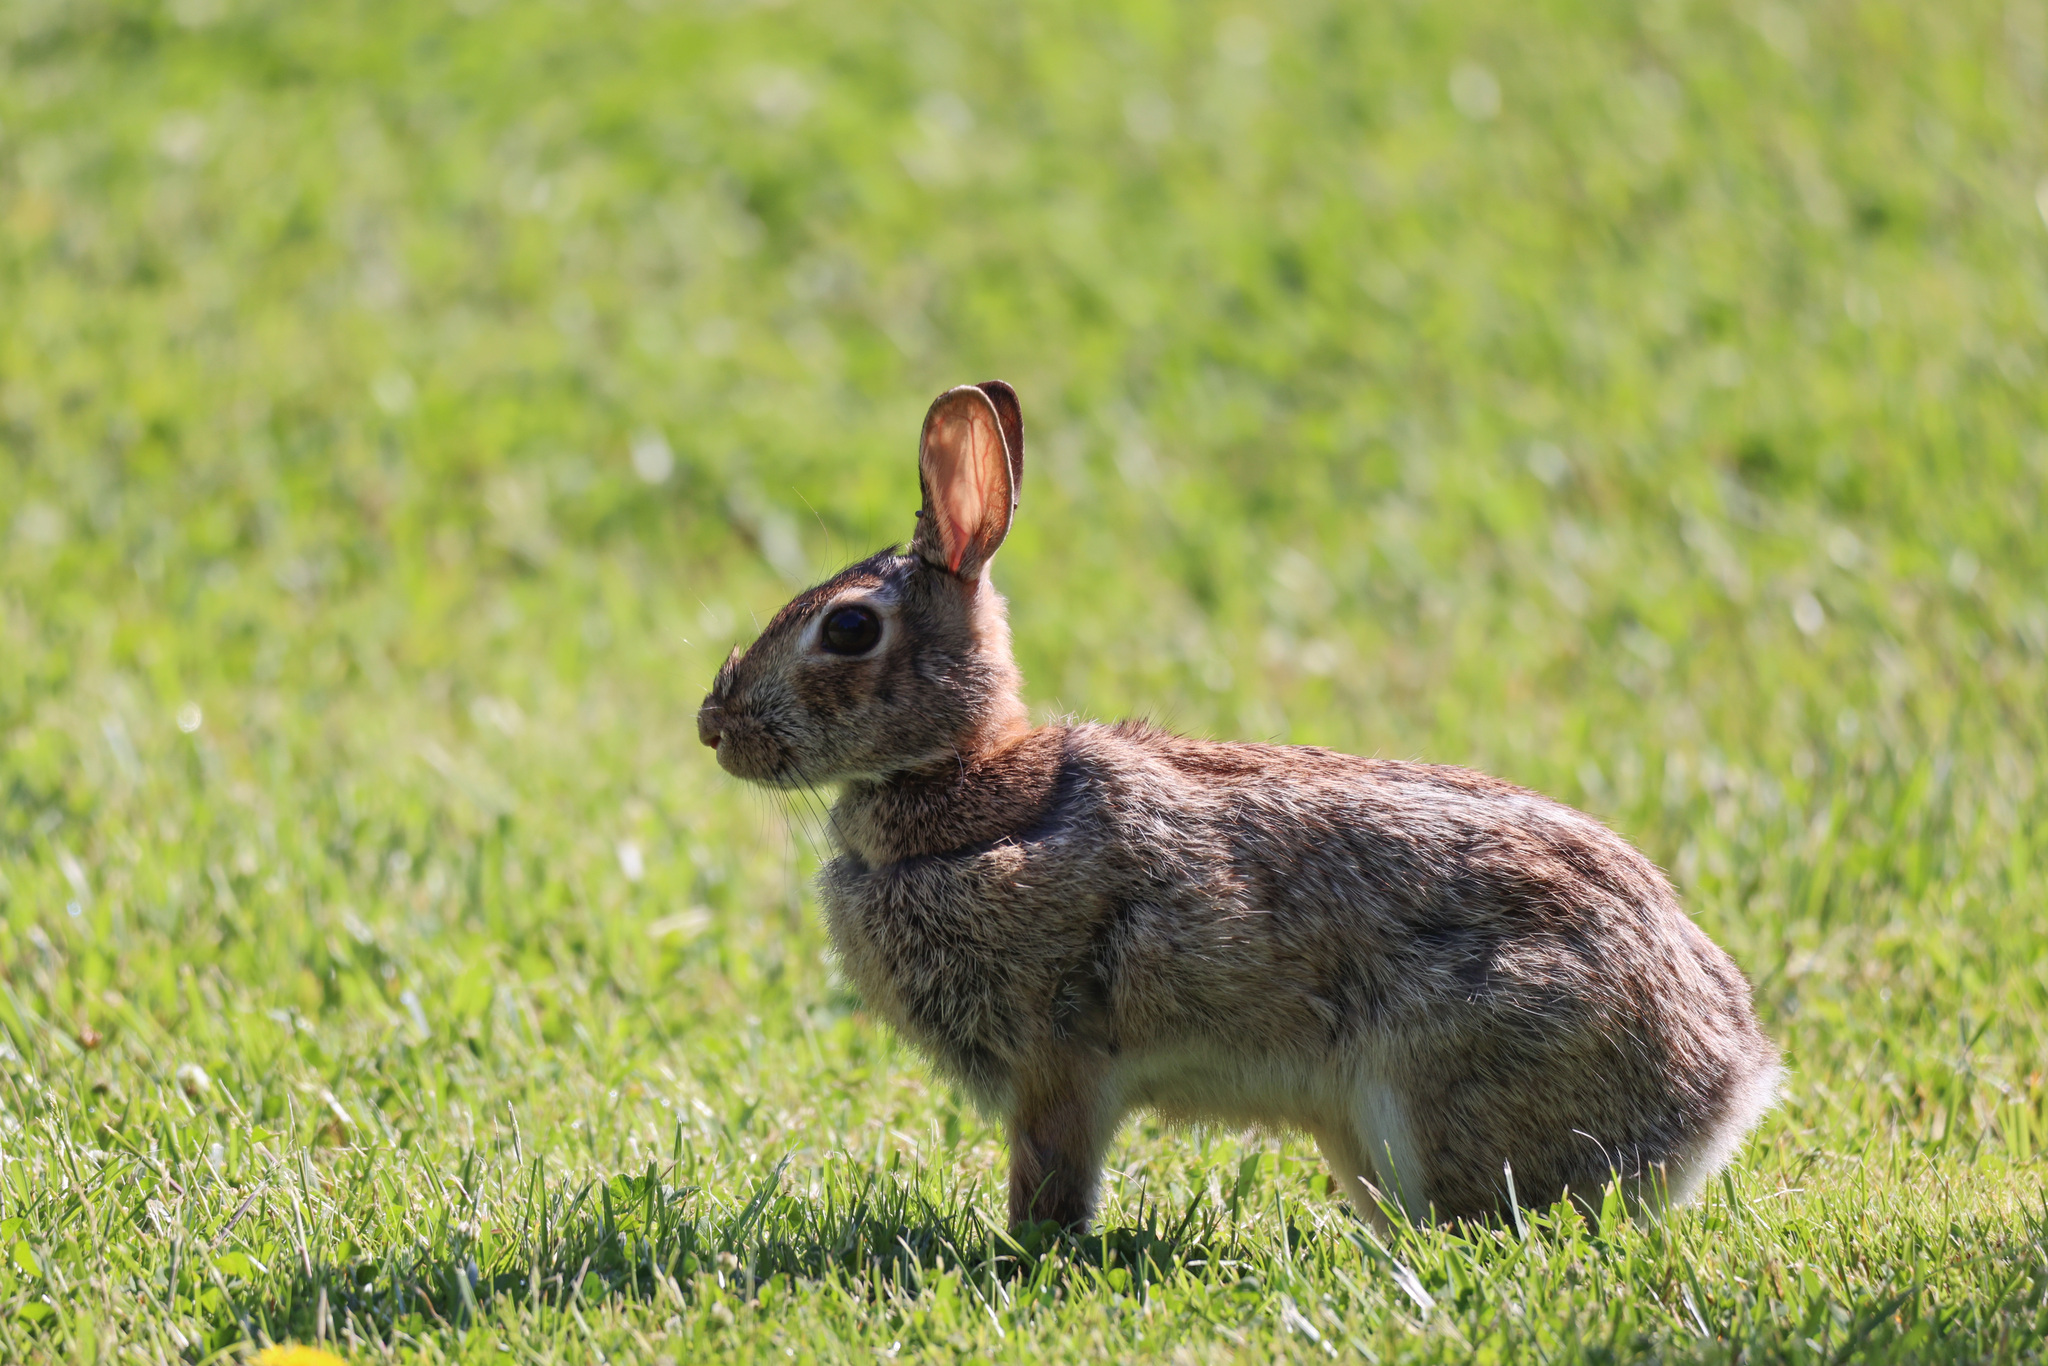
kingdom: Animalia
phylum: Chordata
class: Mammalia
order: Lagomorpha
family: Leporidae
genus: Sylvilagus
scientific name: Sylvilagus floridanus
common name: Eastern cottontail
